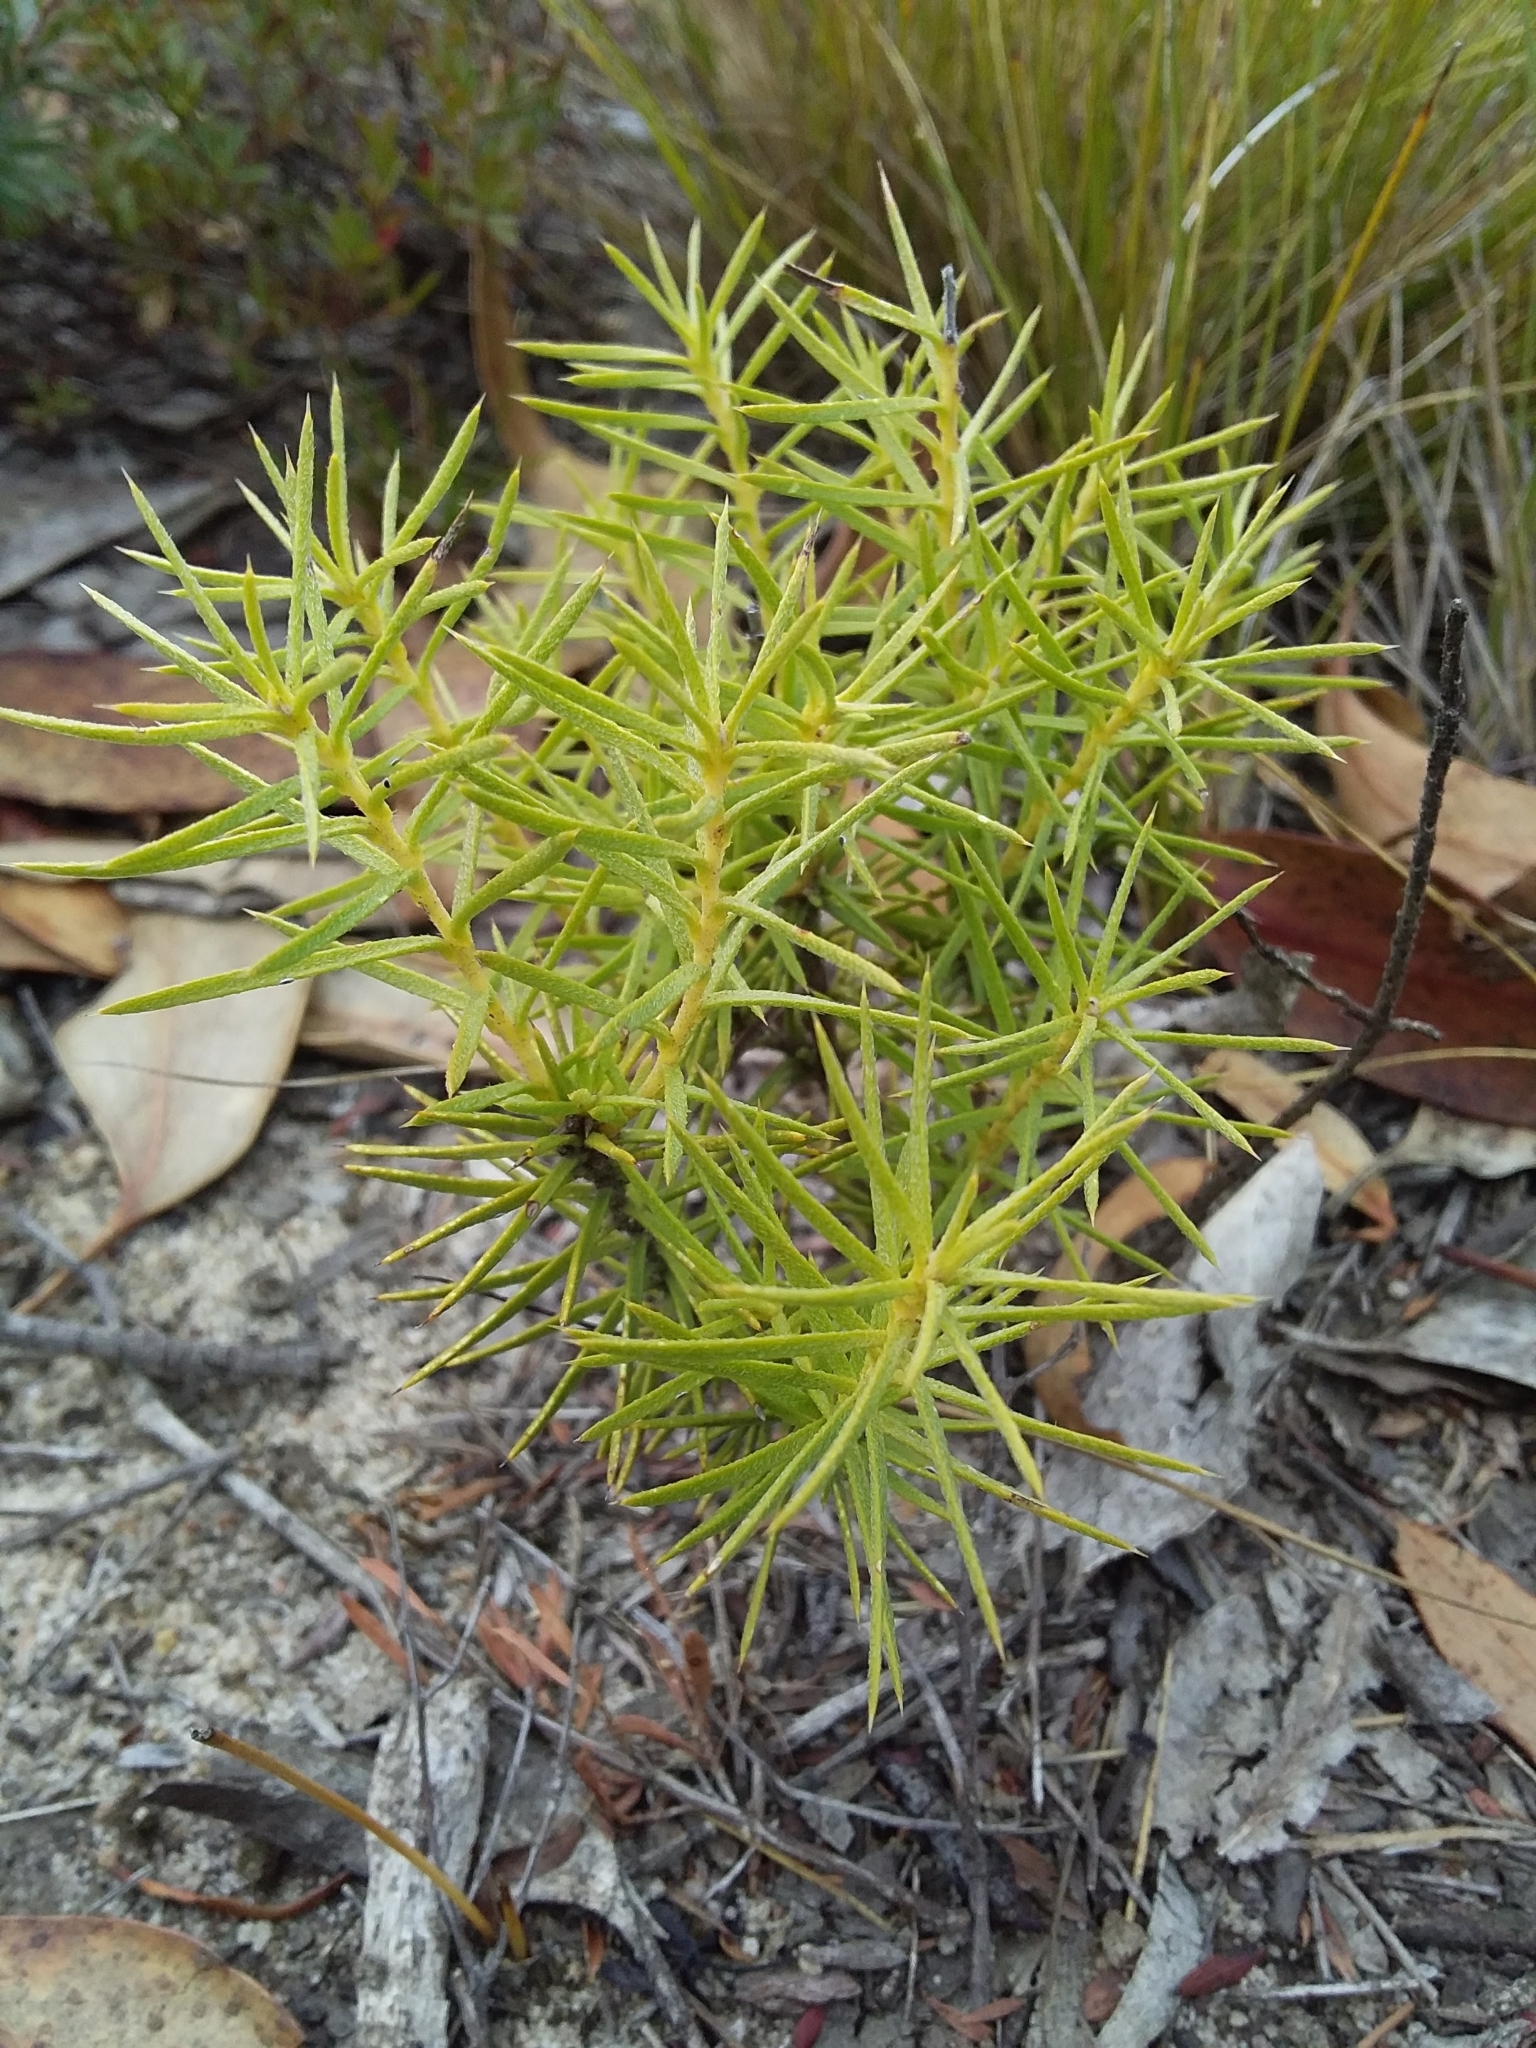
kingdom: Plantae
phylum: Tracheophyta
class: Magnoliopsida
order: Proteales
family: Proteaceae
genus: Persoonia
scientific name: Persoonia juniperina
